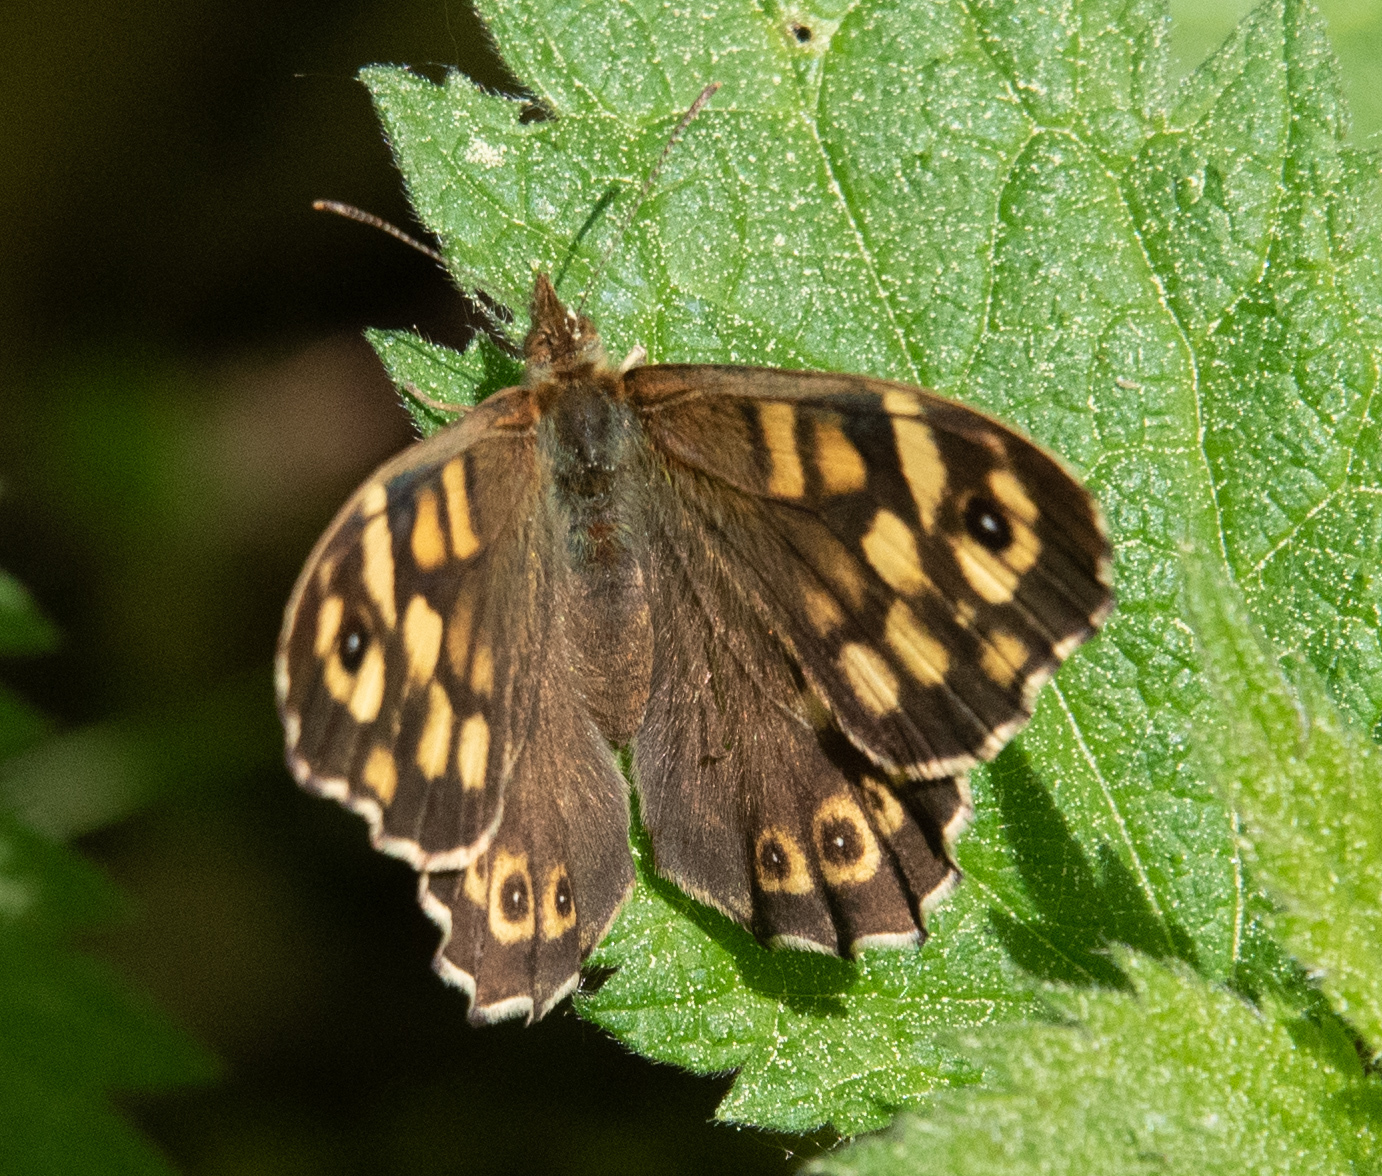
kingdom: Animalia
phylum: Arthropoda
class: Insecta
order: Lepidoptera
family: Nymphalidae
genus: Pararge
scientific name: Pararge aegeria
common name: Speckled wood
